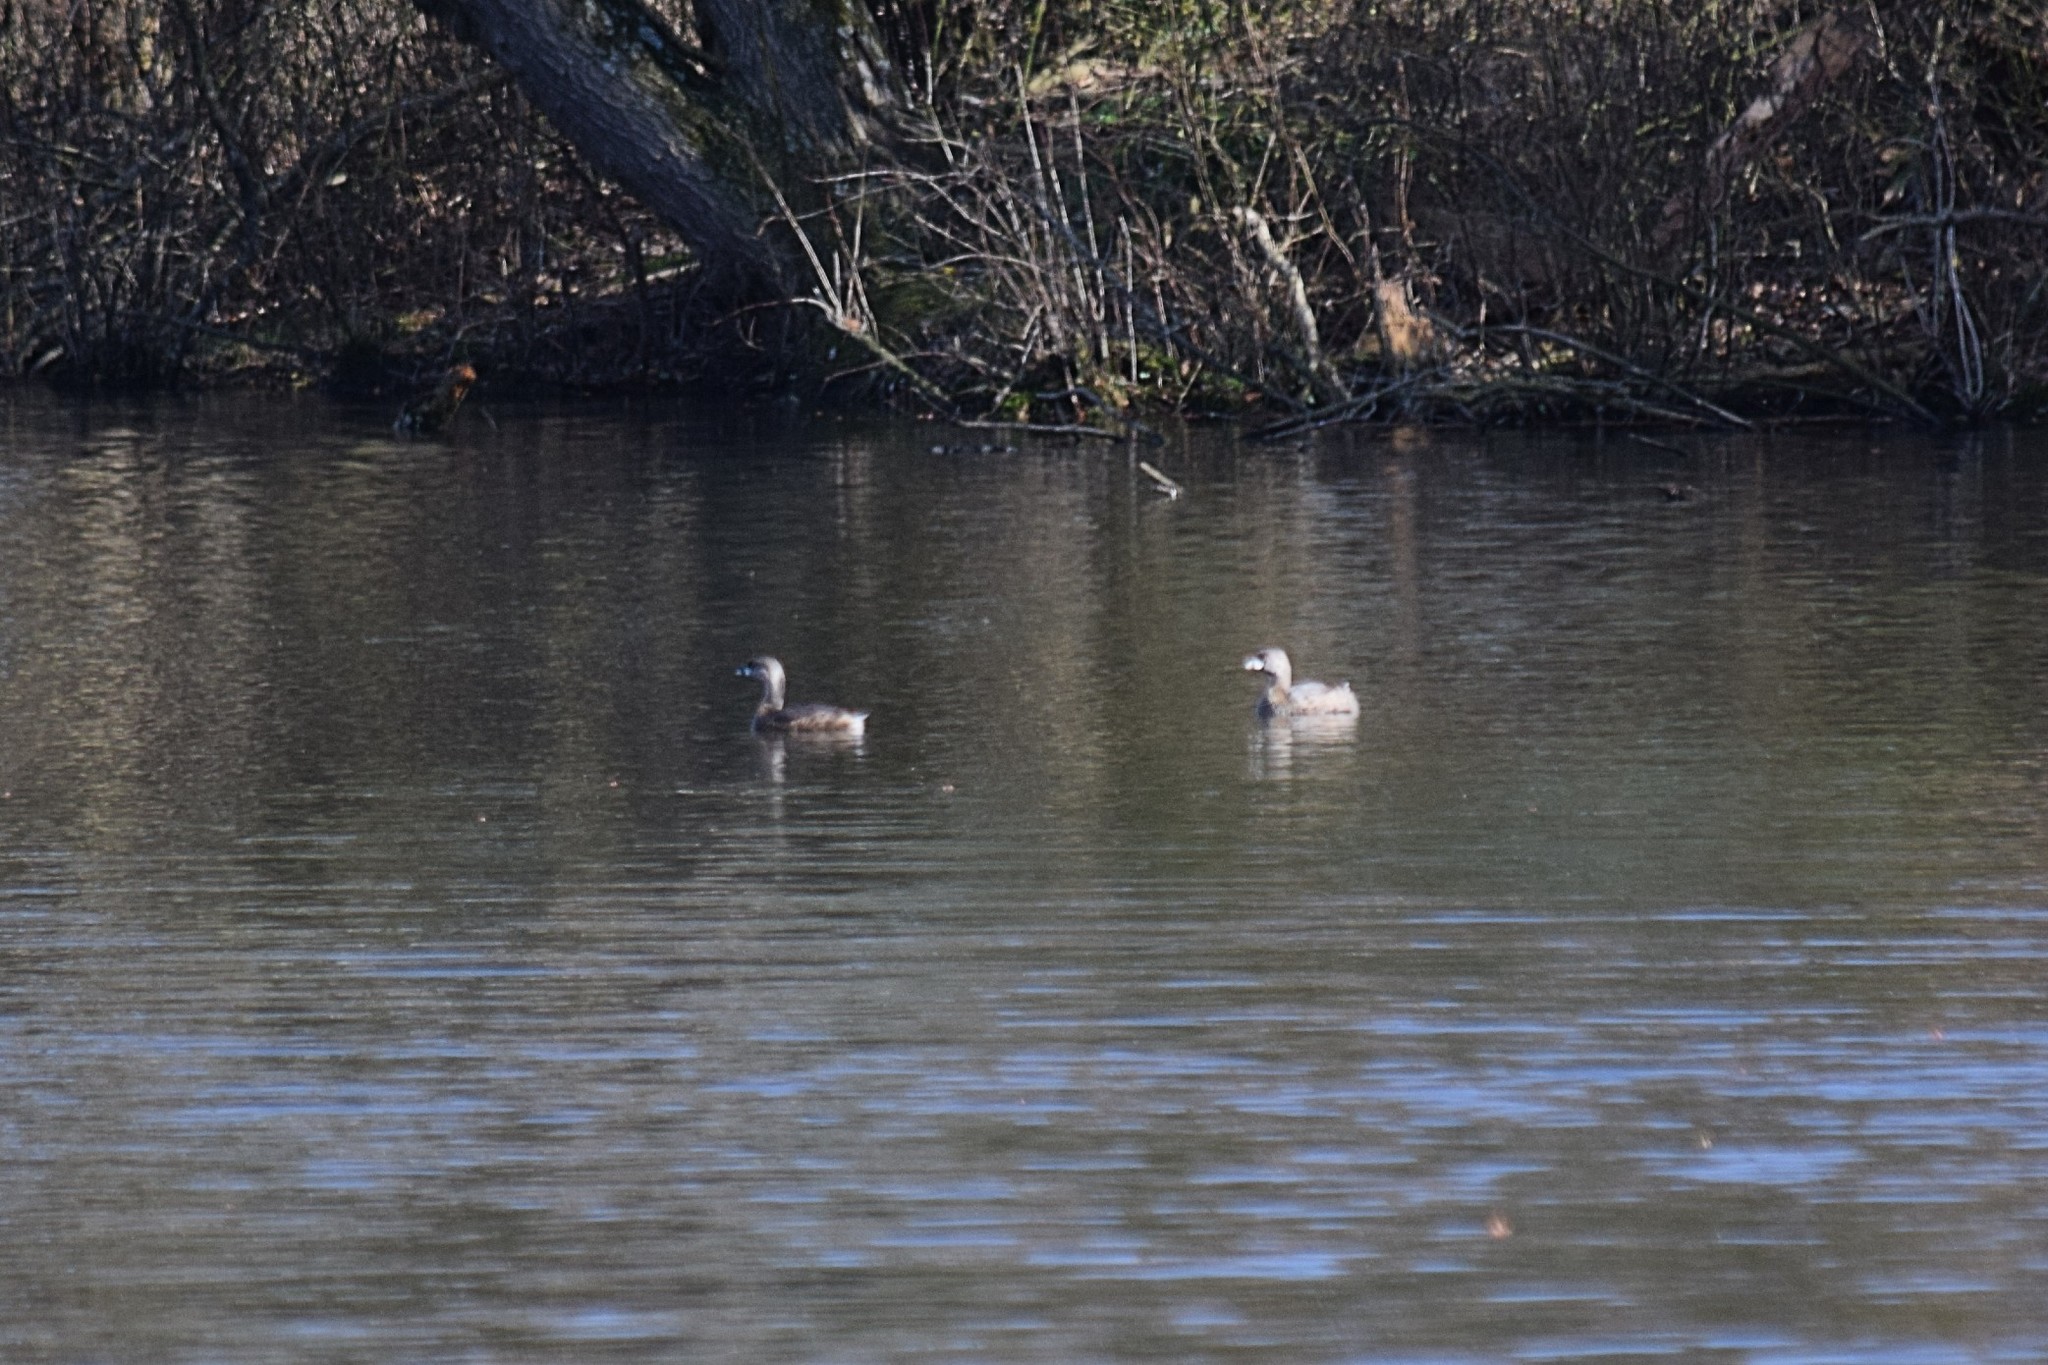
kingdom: Animalia
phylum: Chordata
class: Aves
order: Podicipediformes
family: Podicipedidae
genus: Podilymbus
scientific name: Podilymbus podiceps
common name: Pied-billed grebe
